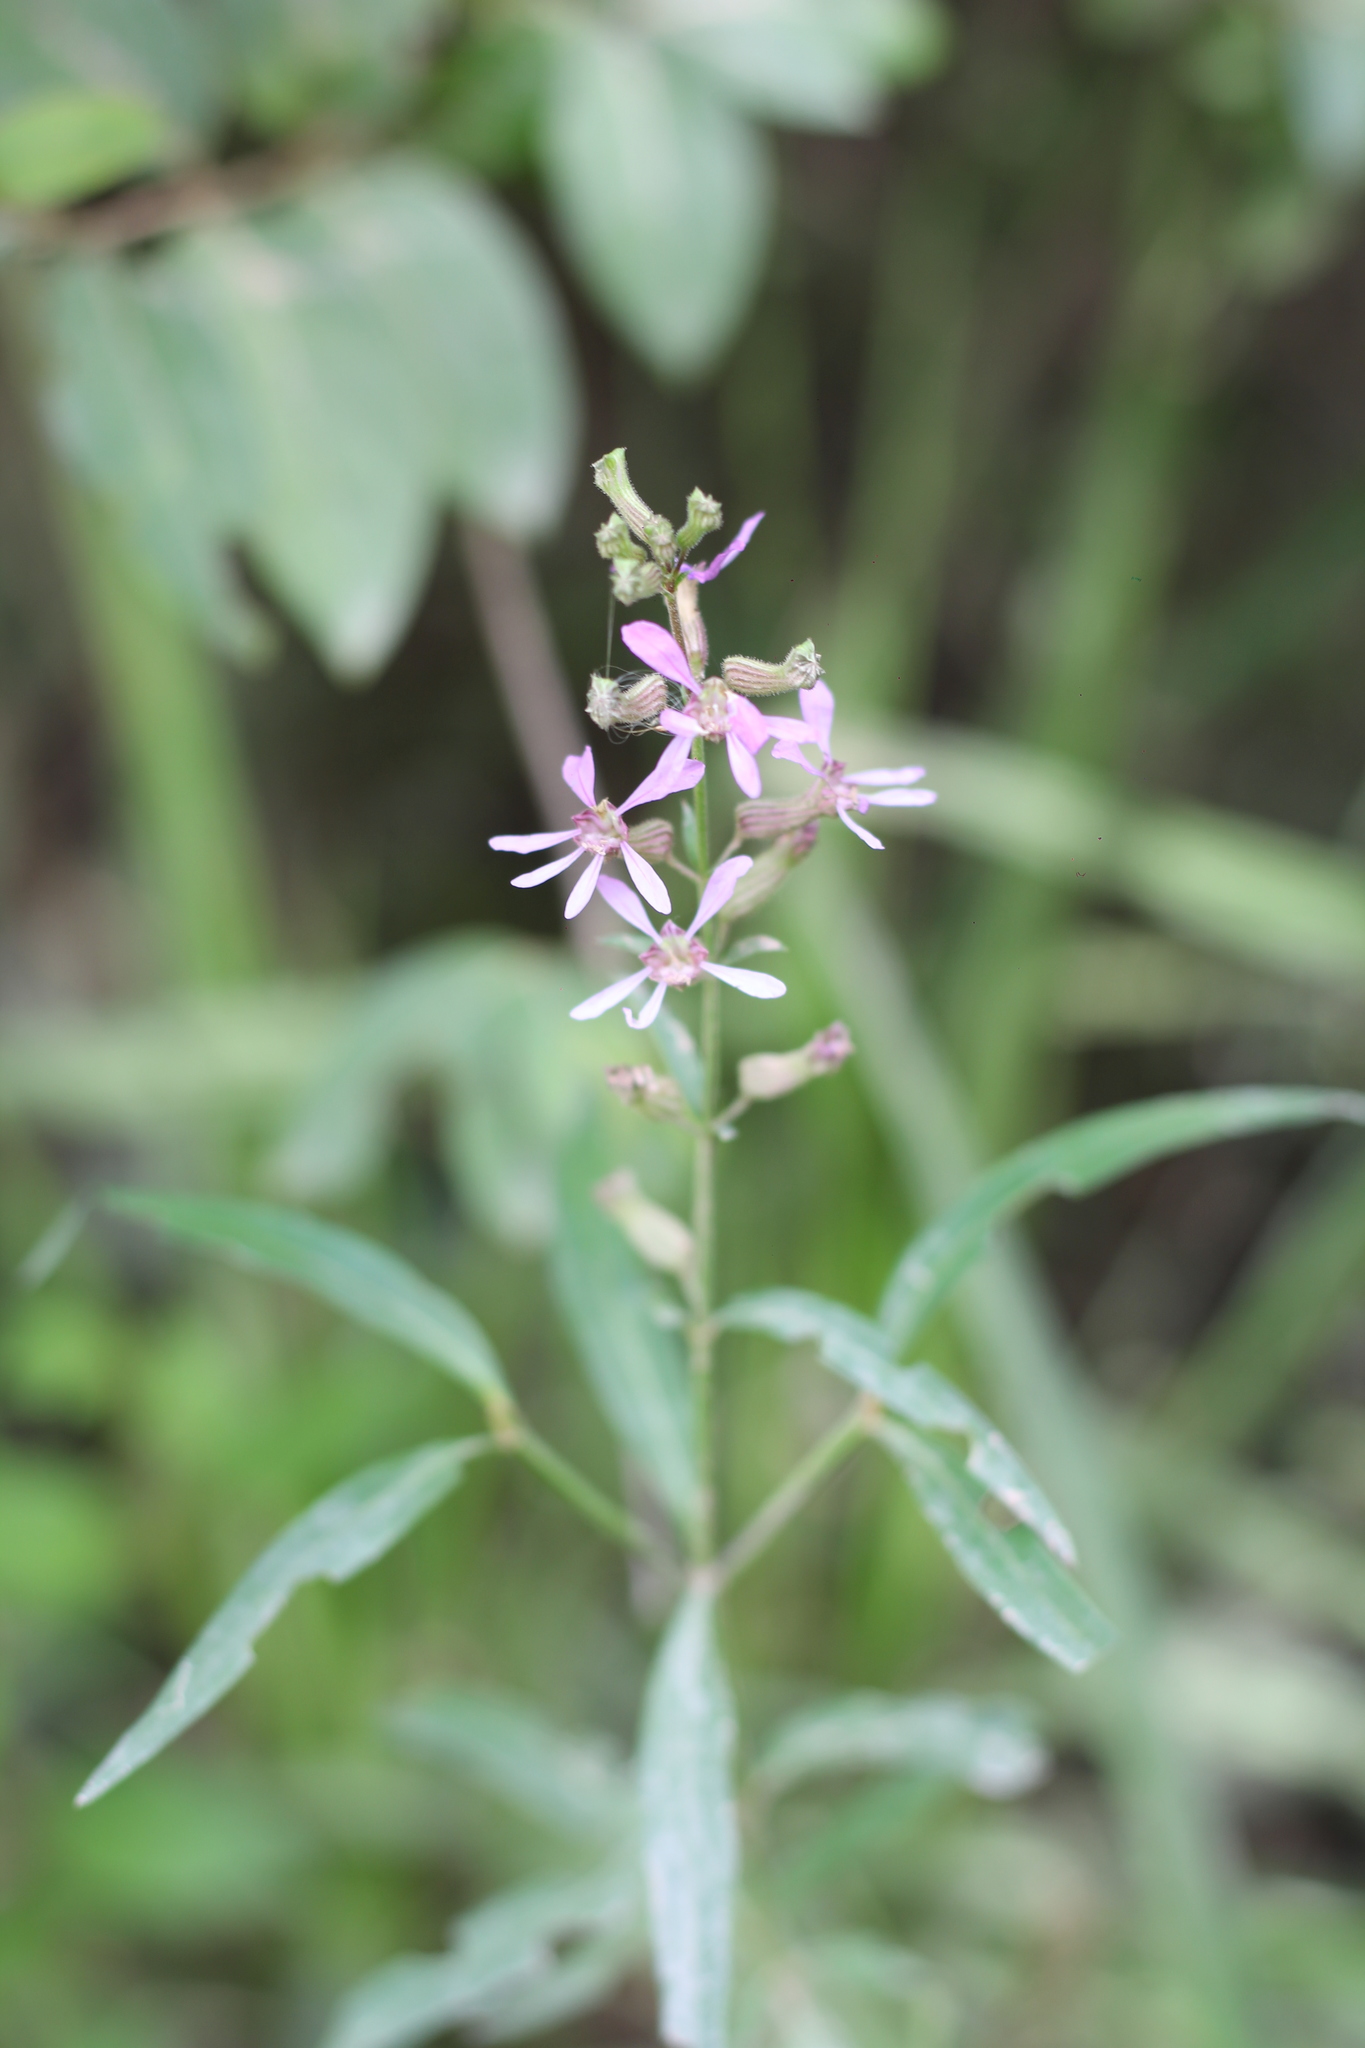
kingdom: Plantae
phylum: Tracheophyta
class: Magnoliopsida
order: Myrtales
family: Lythraceae
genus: Cuphea
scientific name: Cuphea fruticosa
